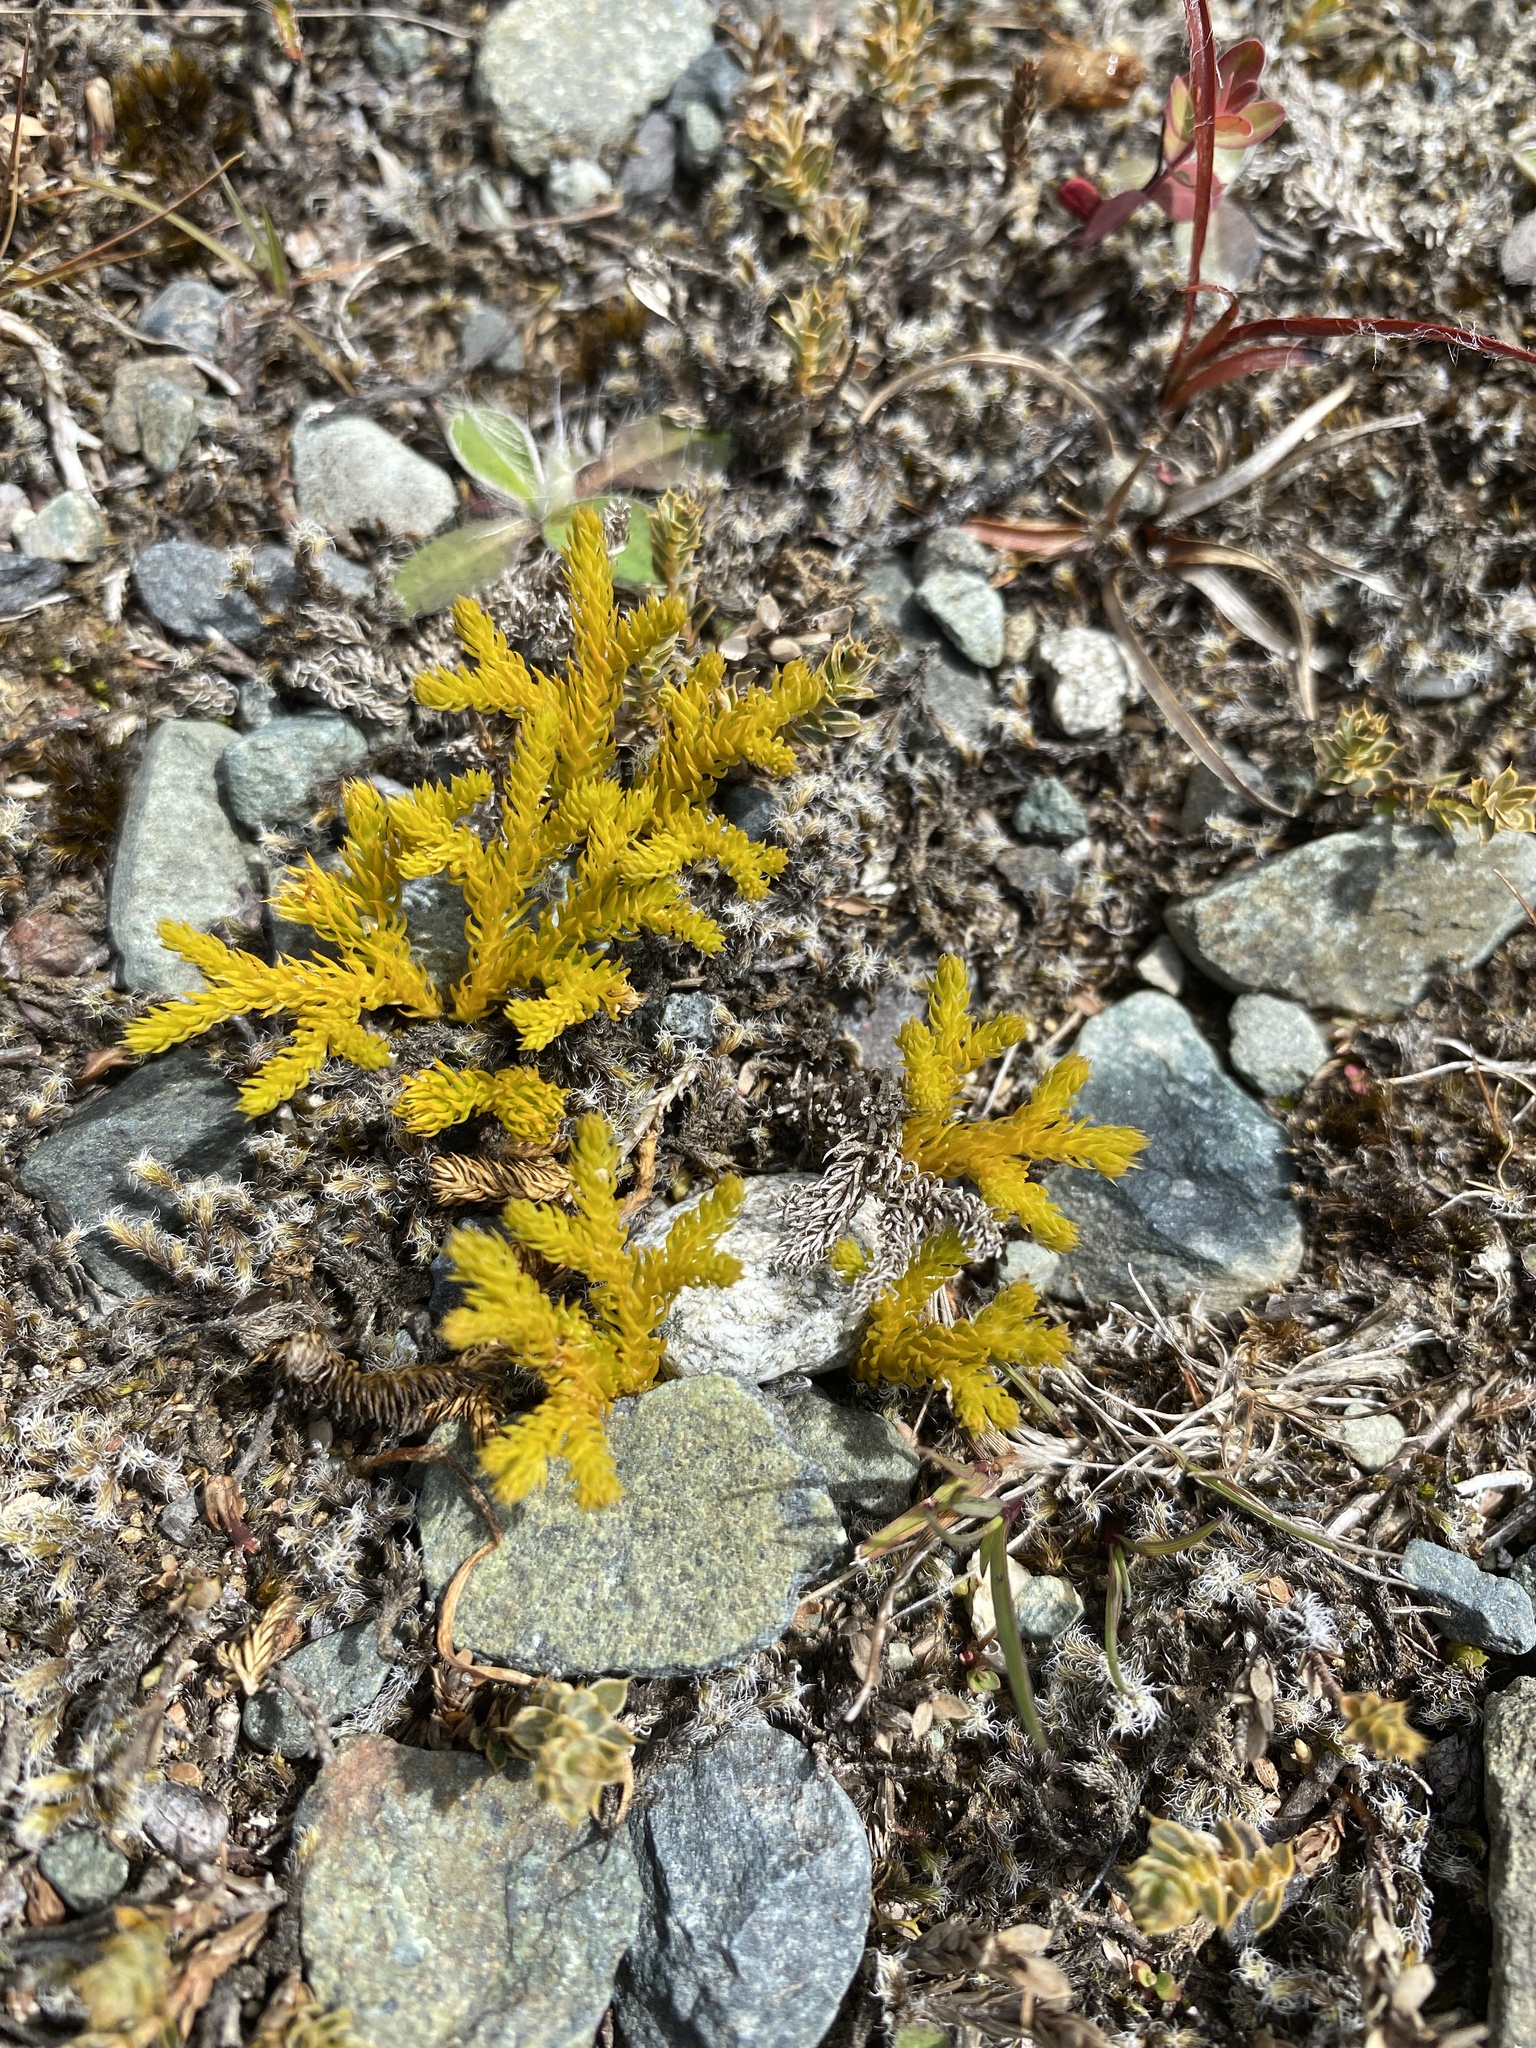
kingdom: Plantae
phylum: Tracheophyta
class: Lycopodiopsida
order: Lycopodiales
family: Lycopodiaceae
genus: Austrolycopodium
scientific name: Austrolycopodium fastigiatum
